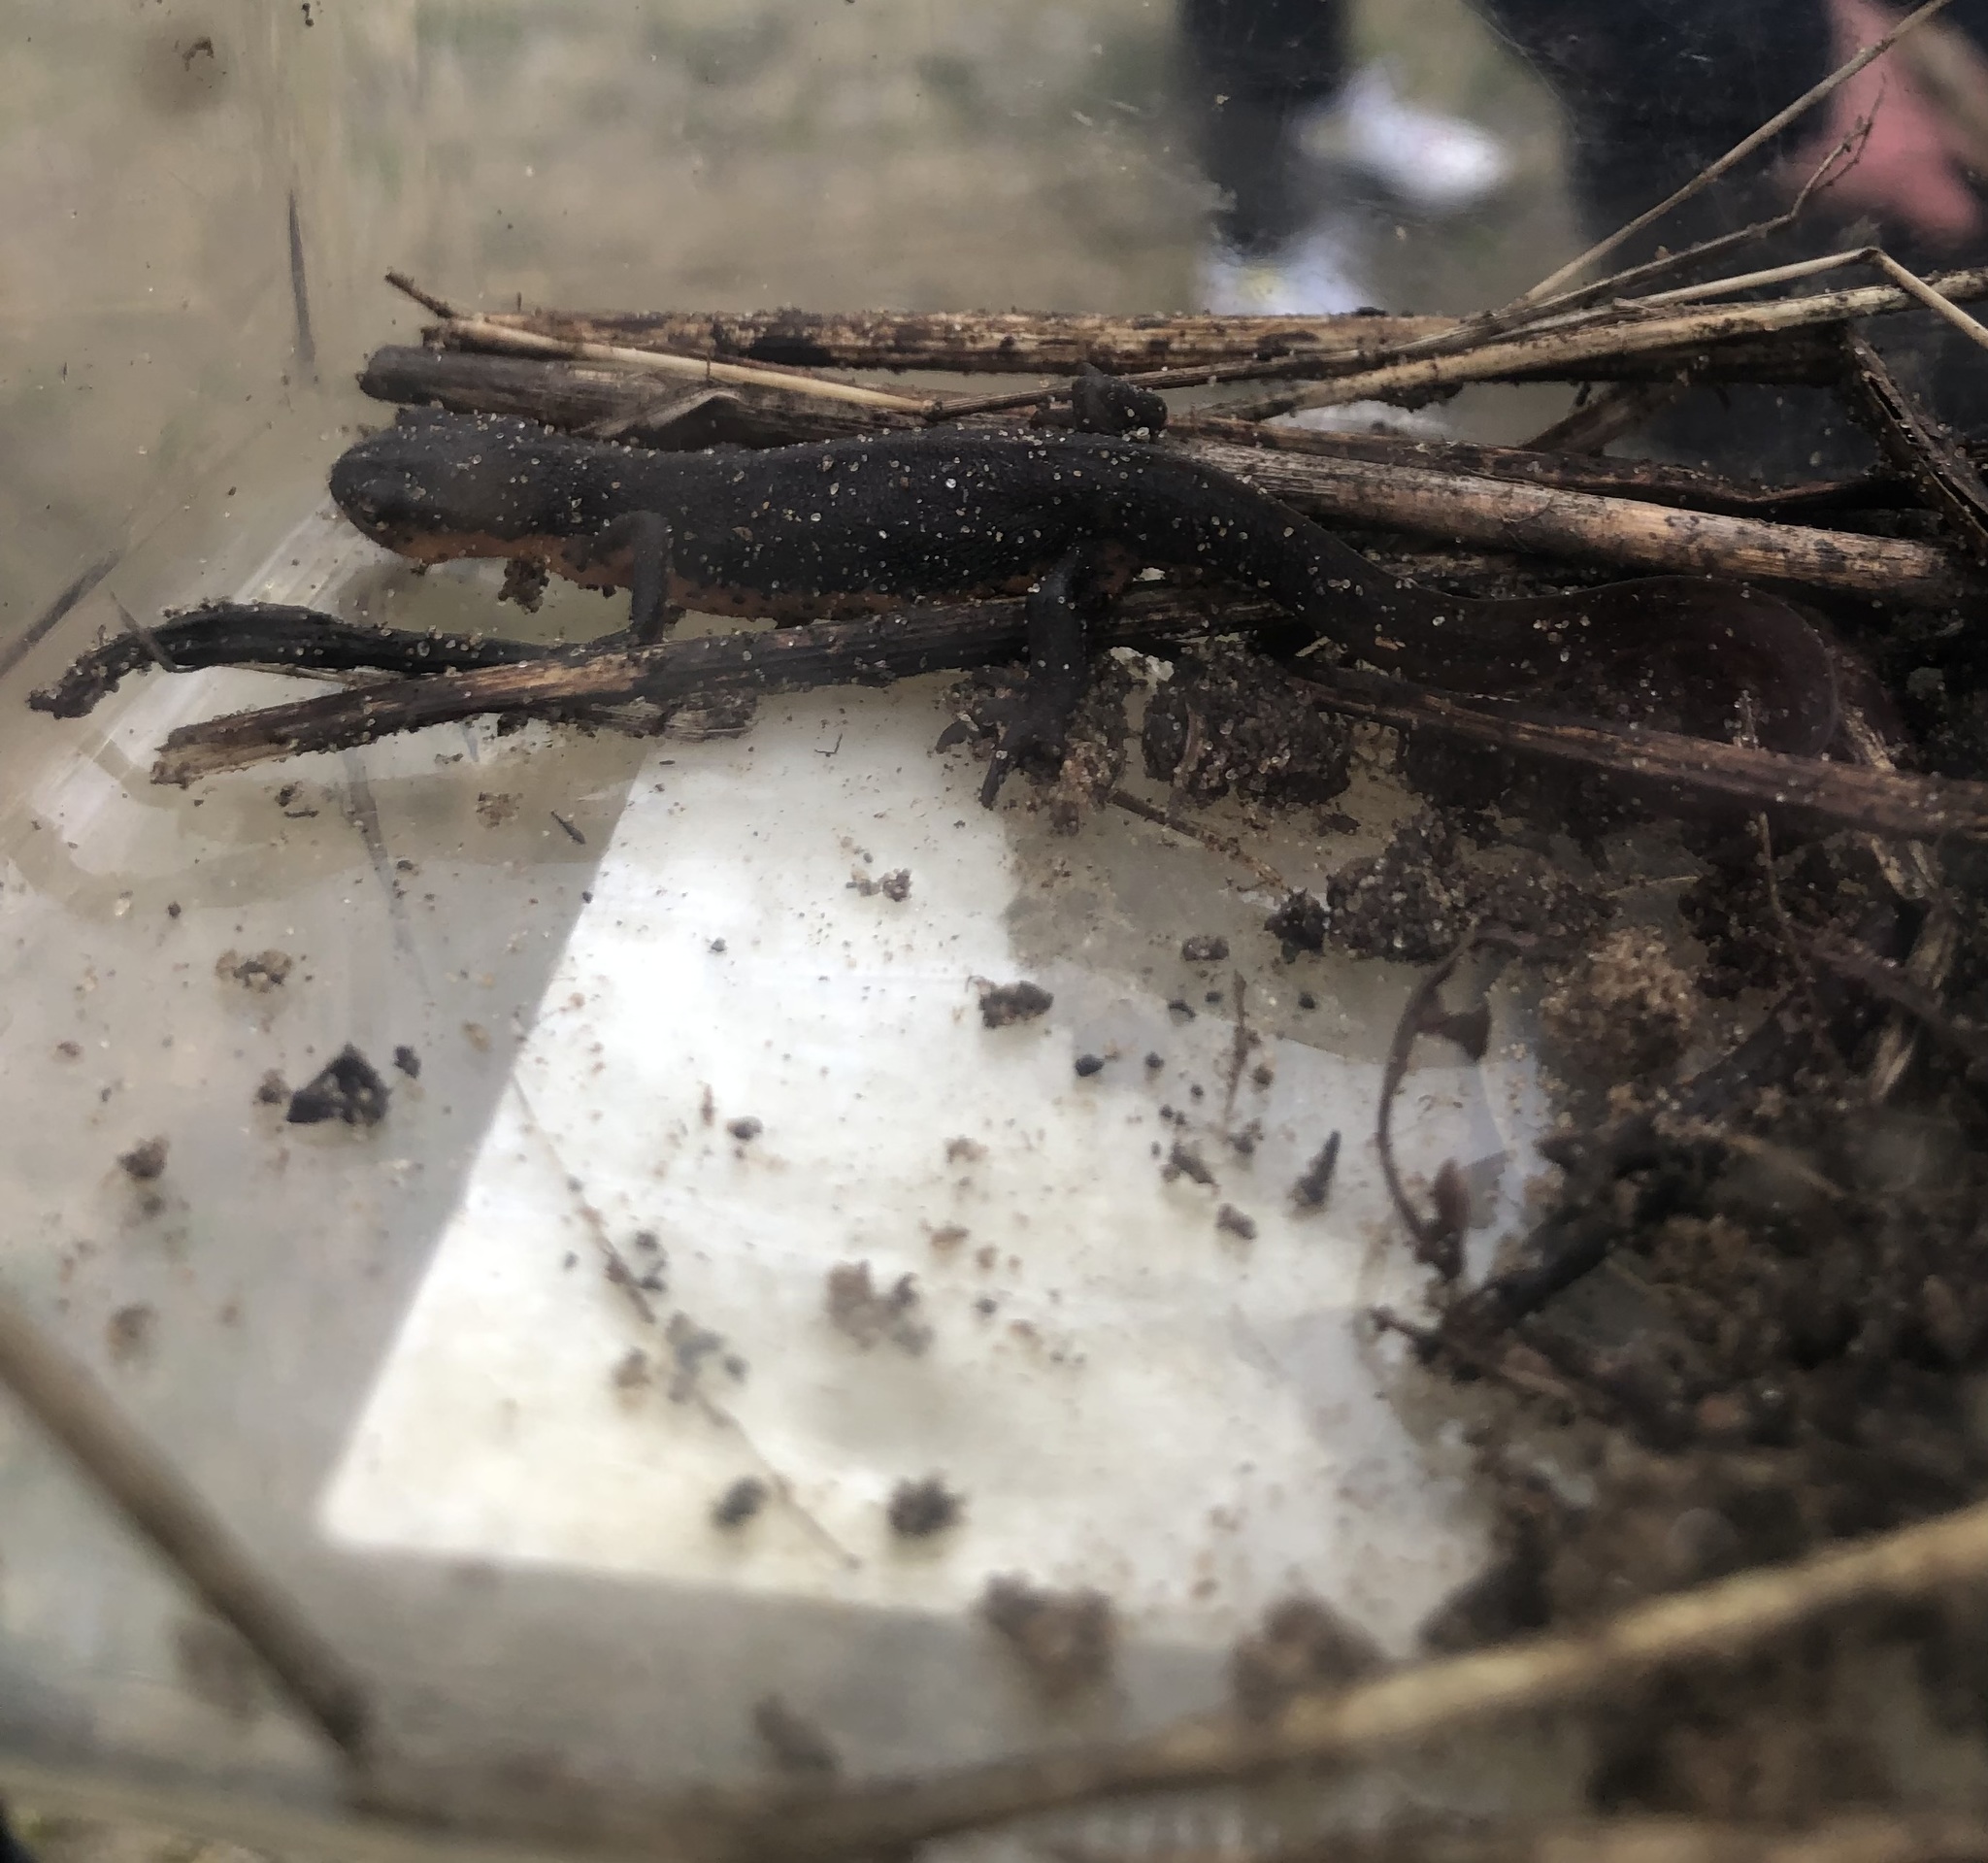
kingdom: Animalia
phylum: Chordata
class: Amphibia
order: Caudata
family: Salamandridae
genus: Notophthalmus
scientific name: Notophthalmus viridescens
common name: Eastern newt
